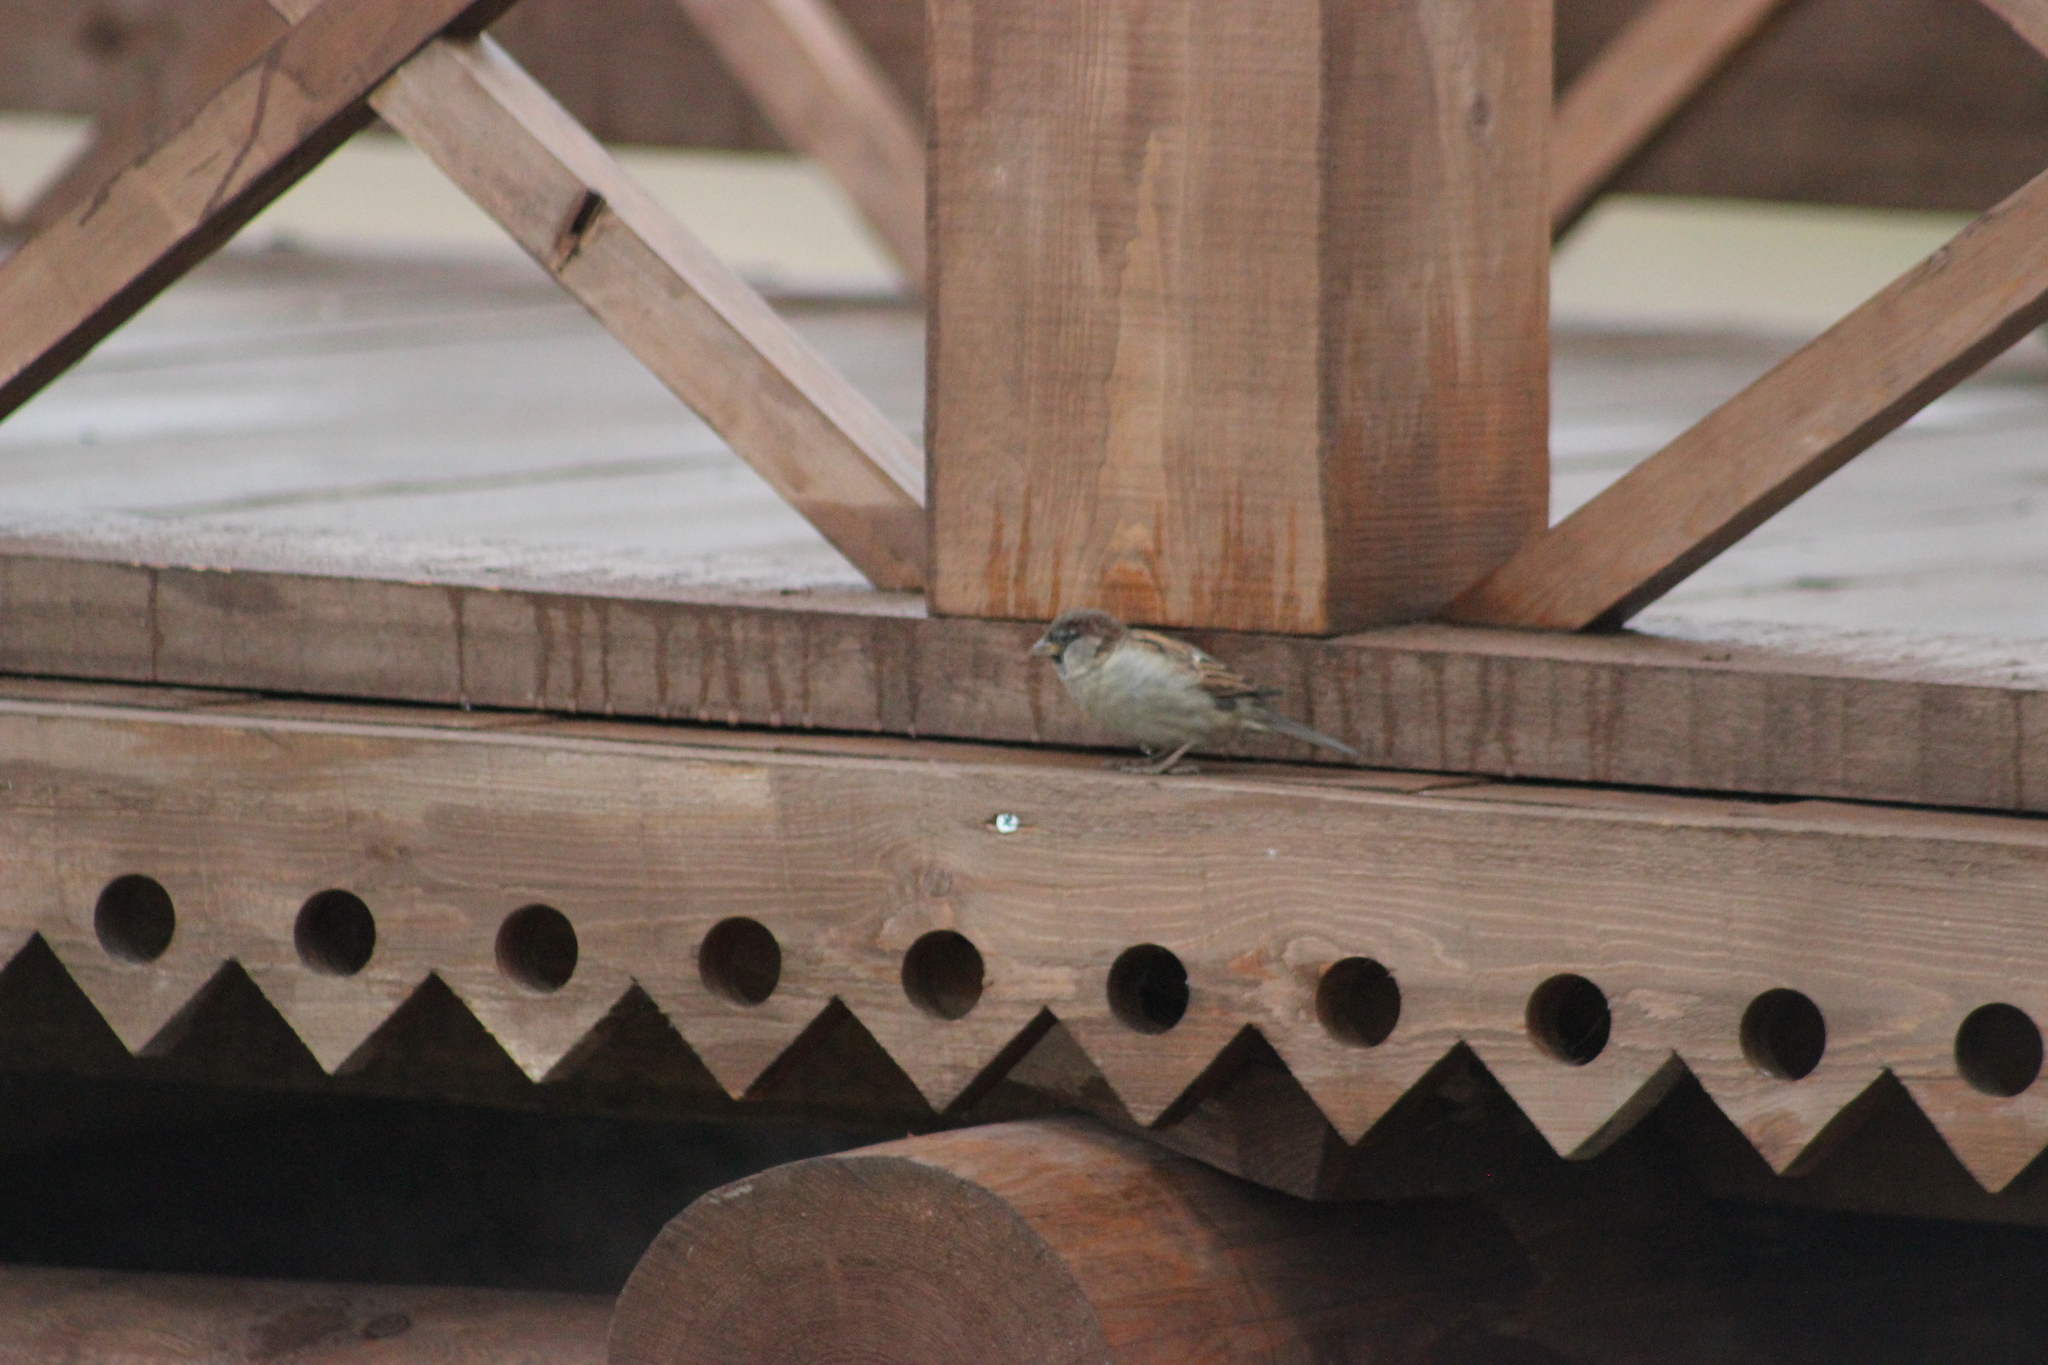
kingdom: Animalia
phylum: Chordata
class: Aves
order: Passeriformes
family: Passeridae
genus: Passer
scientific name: Passer domesticus
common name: House sparrow
